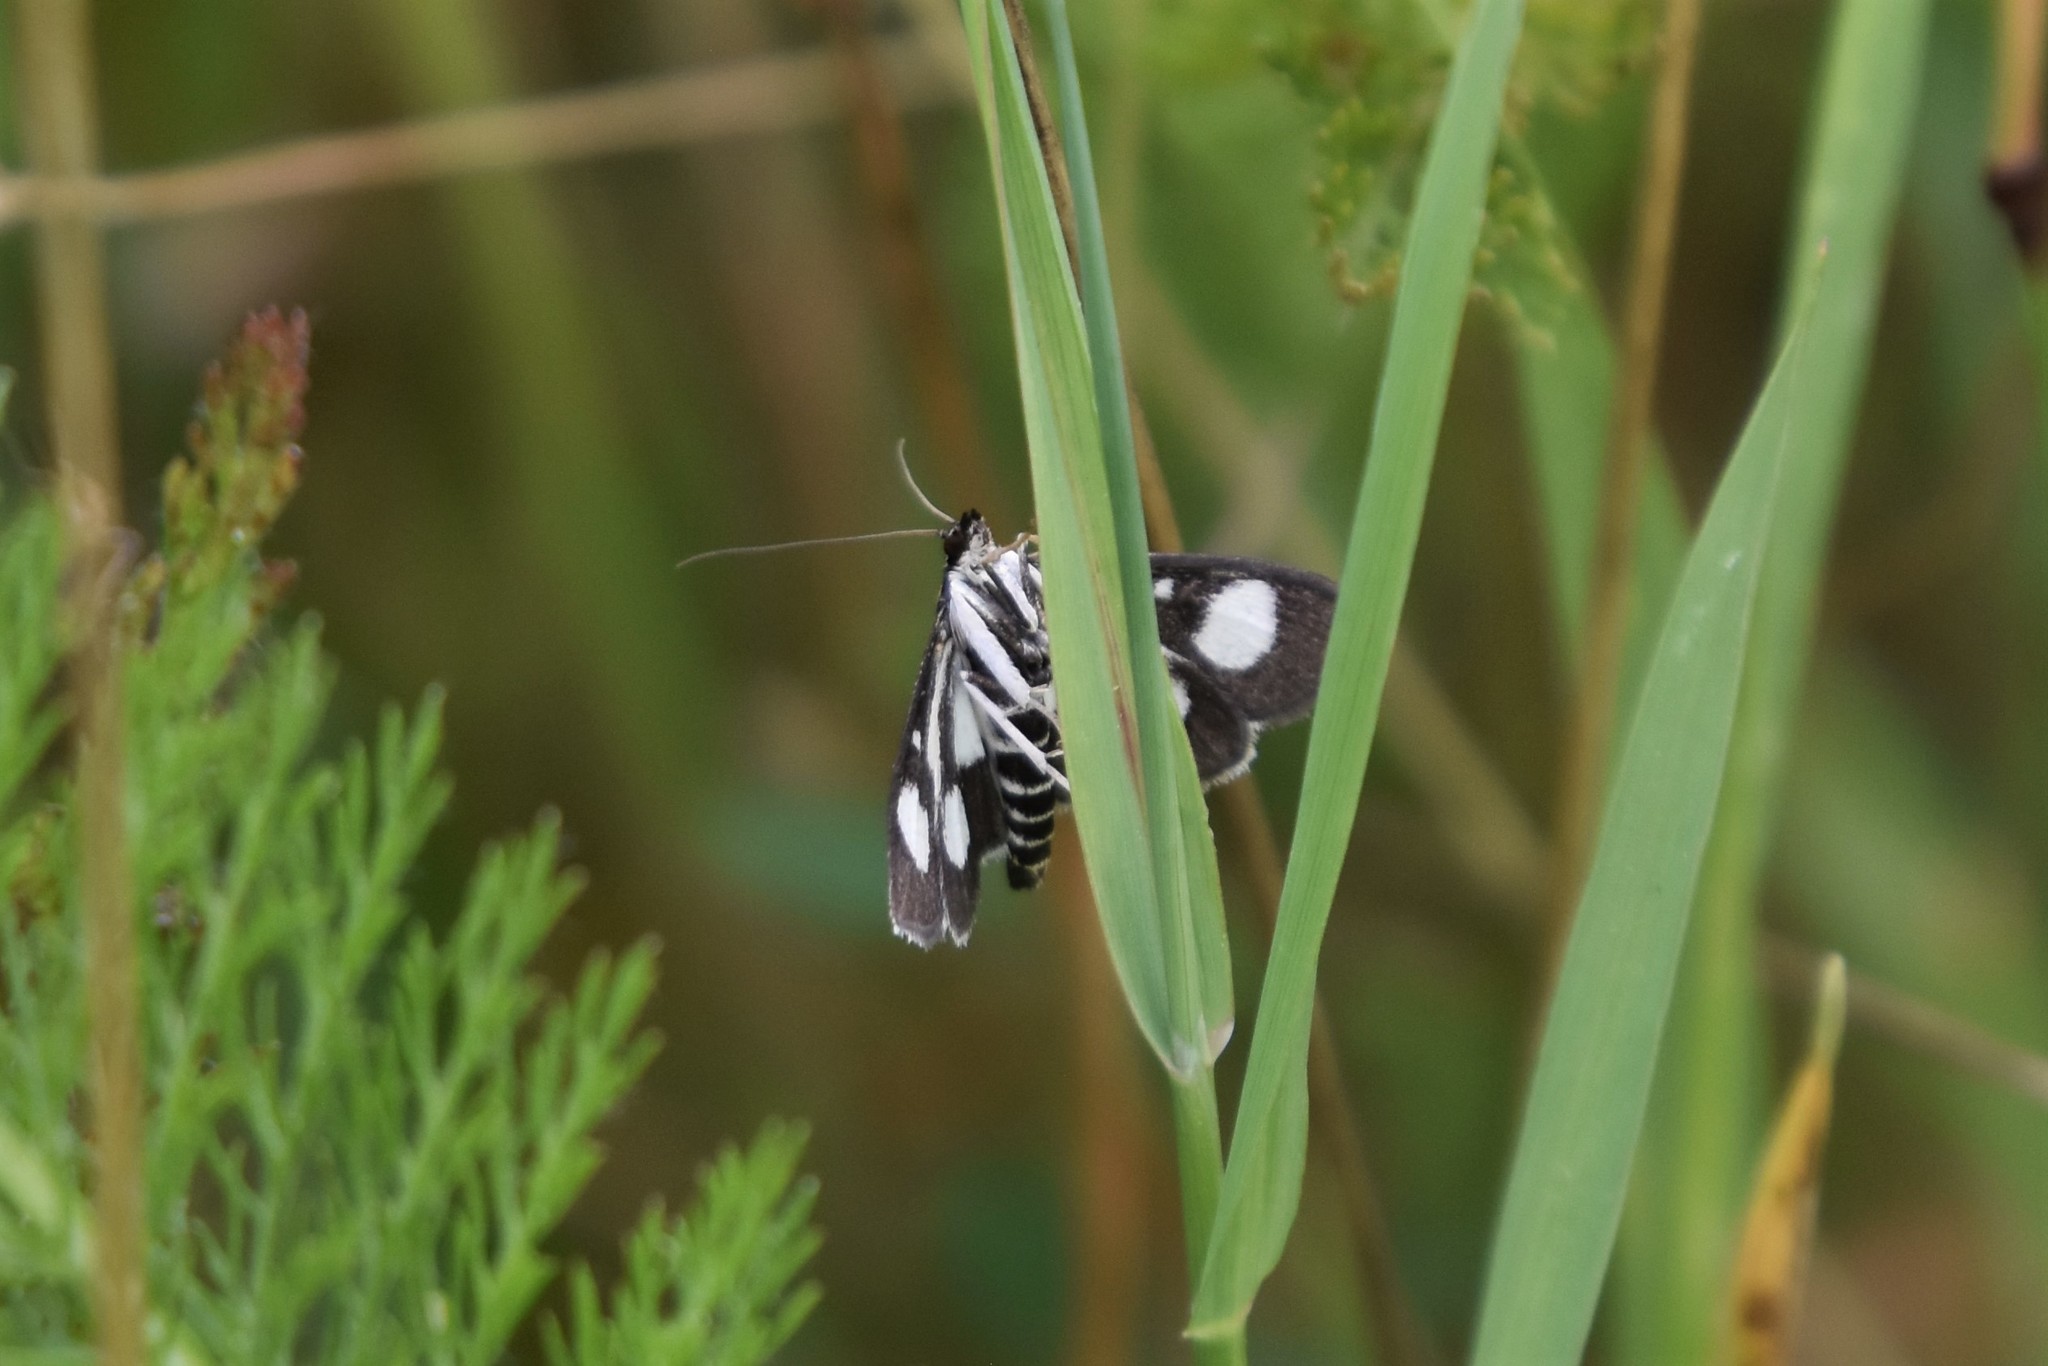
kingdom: Animalia
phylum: Arthropoda
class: Insecta
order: Lepidoptera
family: Crambidae
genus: Anania
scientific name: Anania funebris
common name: White-spotted sable moth
